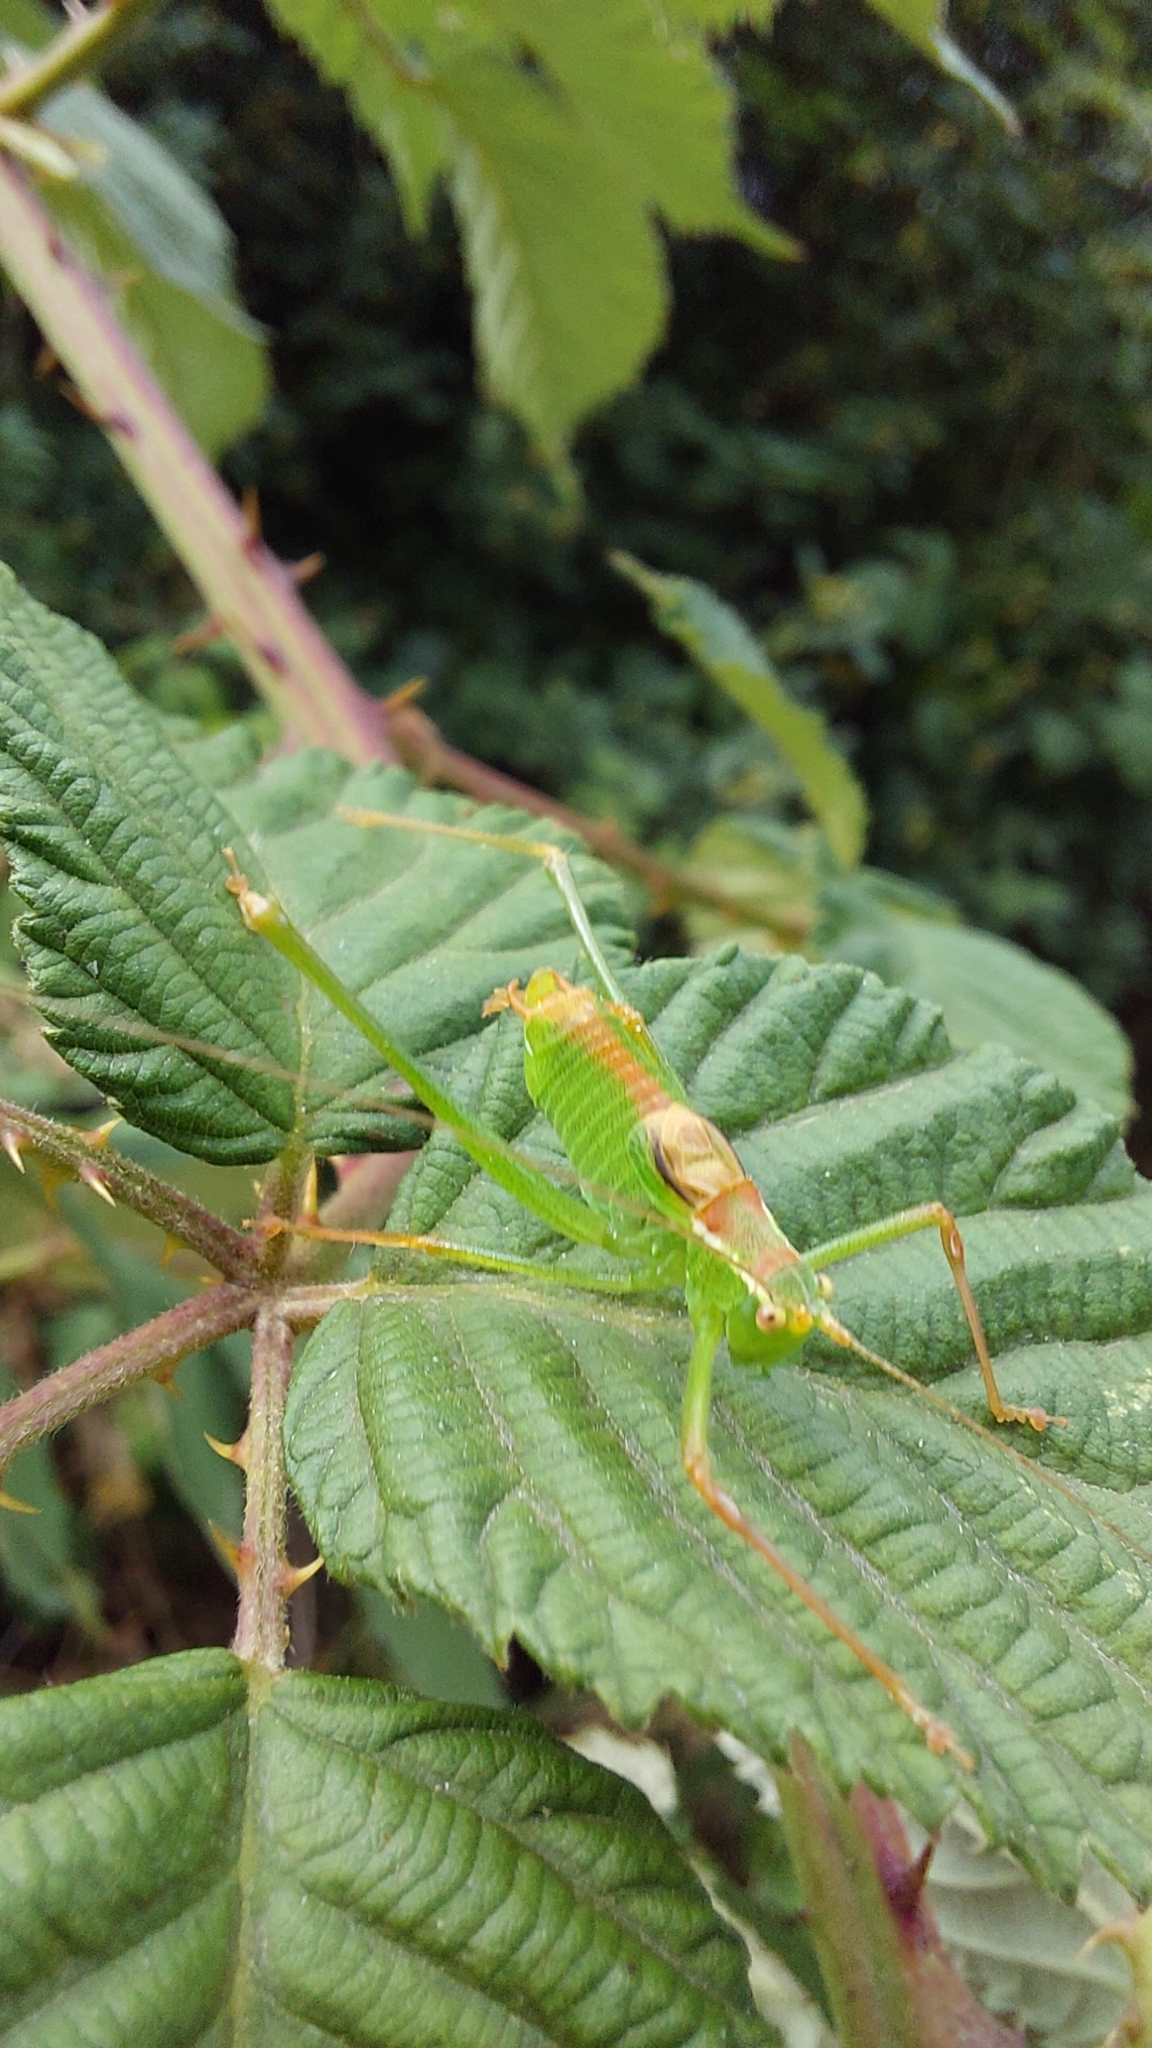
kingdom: Animalia
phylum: Arthropoda
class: Insecta
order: Orthoptera
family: Tettigoniidae
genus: Leptophyes
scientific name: Leptophyes punctatissima
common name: Speckled bush-cricket
